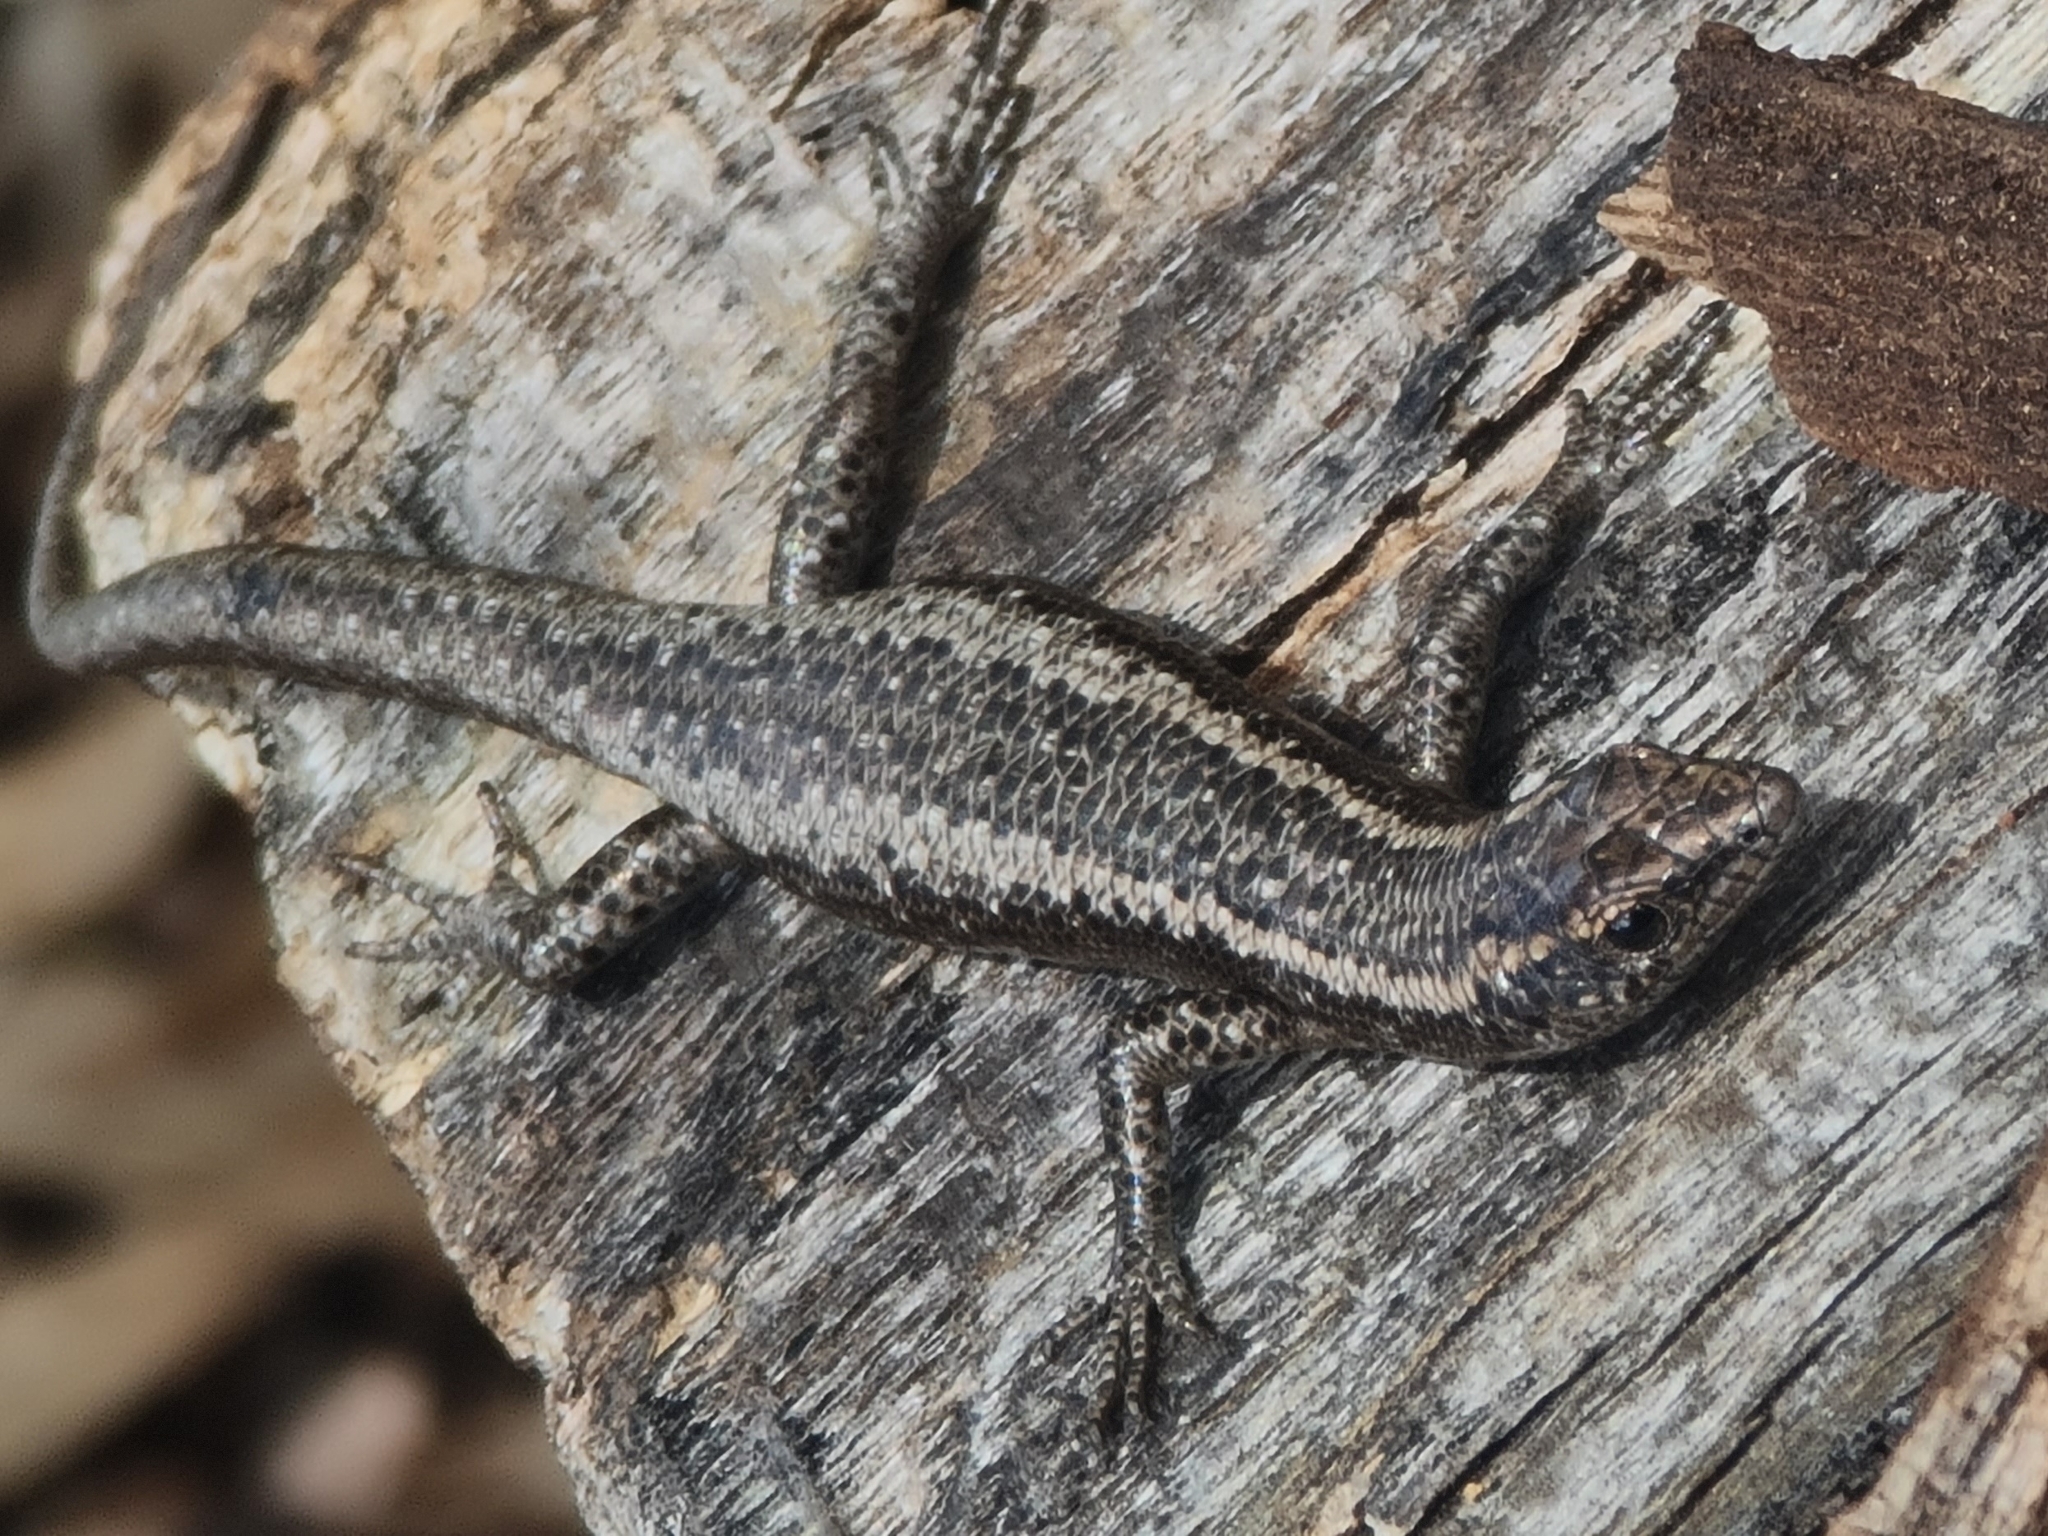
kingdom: Animalia
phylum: Chordata
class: Squamata
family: Scincidae
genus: Cryptoblepharus
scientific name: Cryptoblepharus pannosus
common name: Ragged snake-eyed skink
